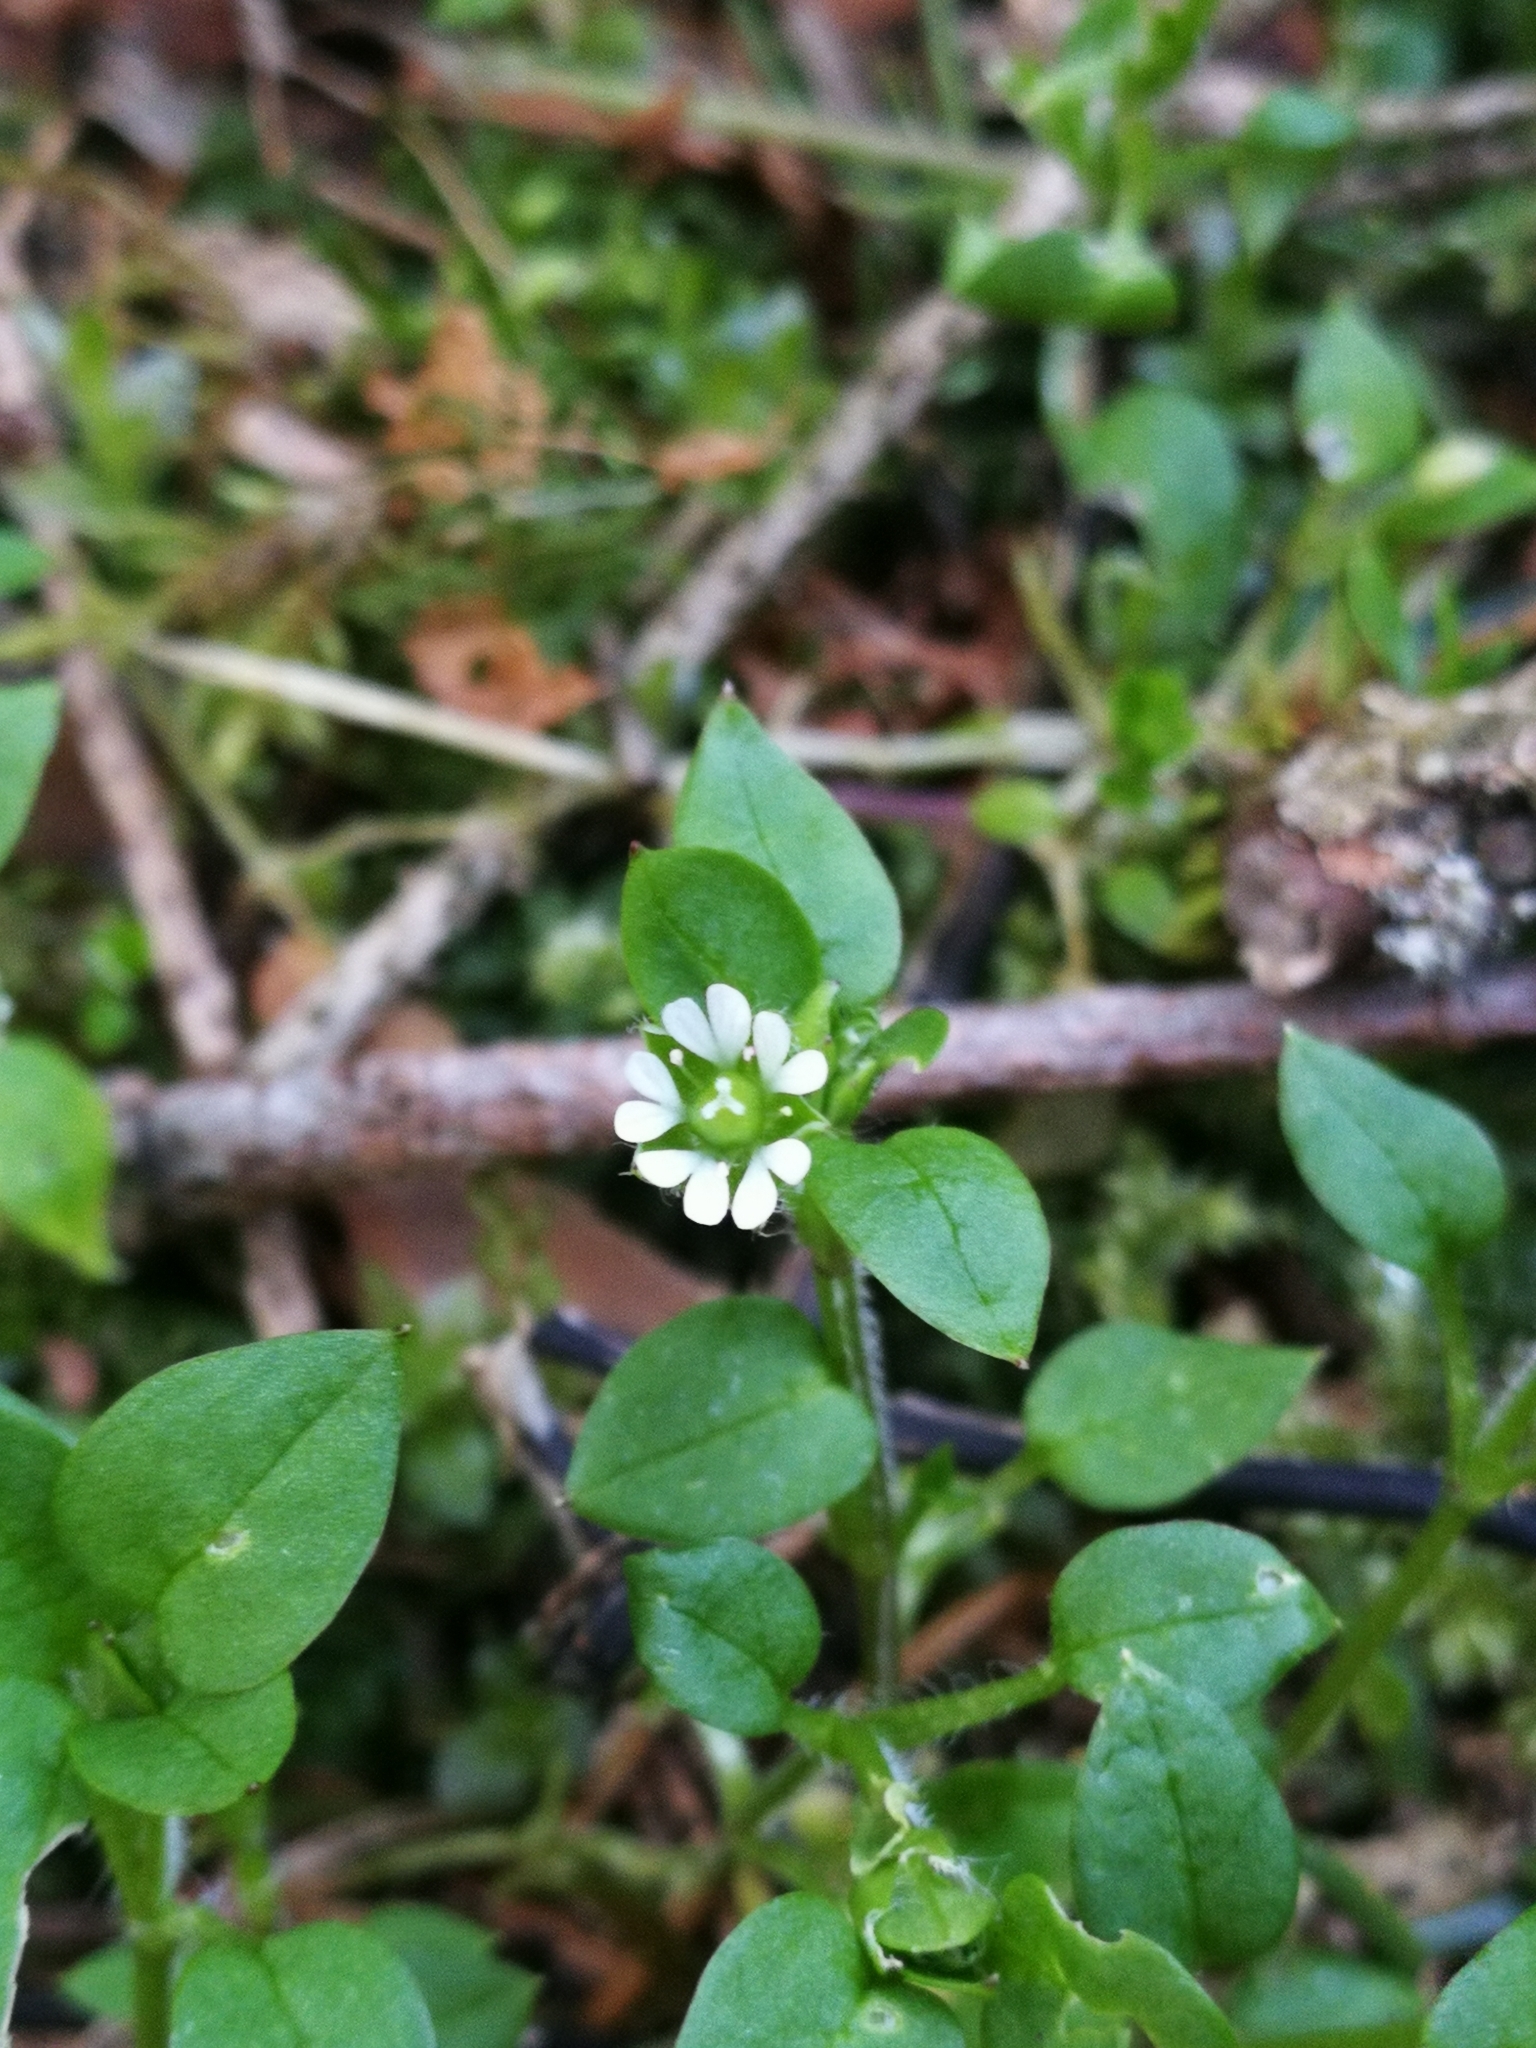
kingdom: Plantae
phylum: Tracheophyta
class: Magnoliopsida
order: Caryophyllales
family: Caryophyllaceae
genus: Stellaria
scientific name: Stellaria media
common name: Common chickweed
